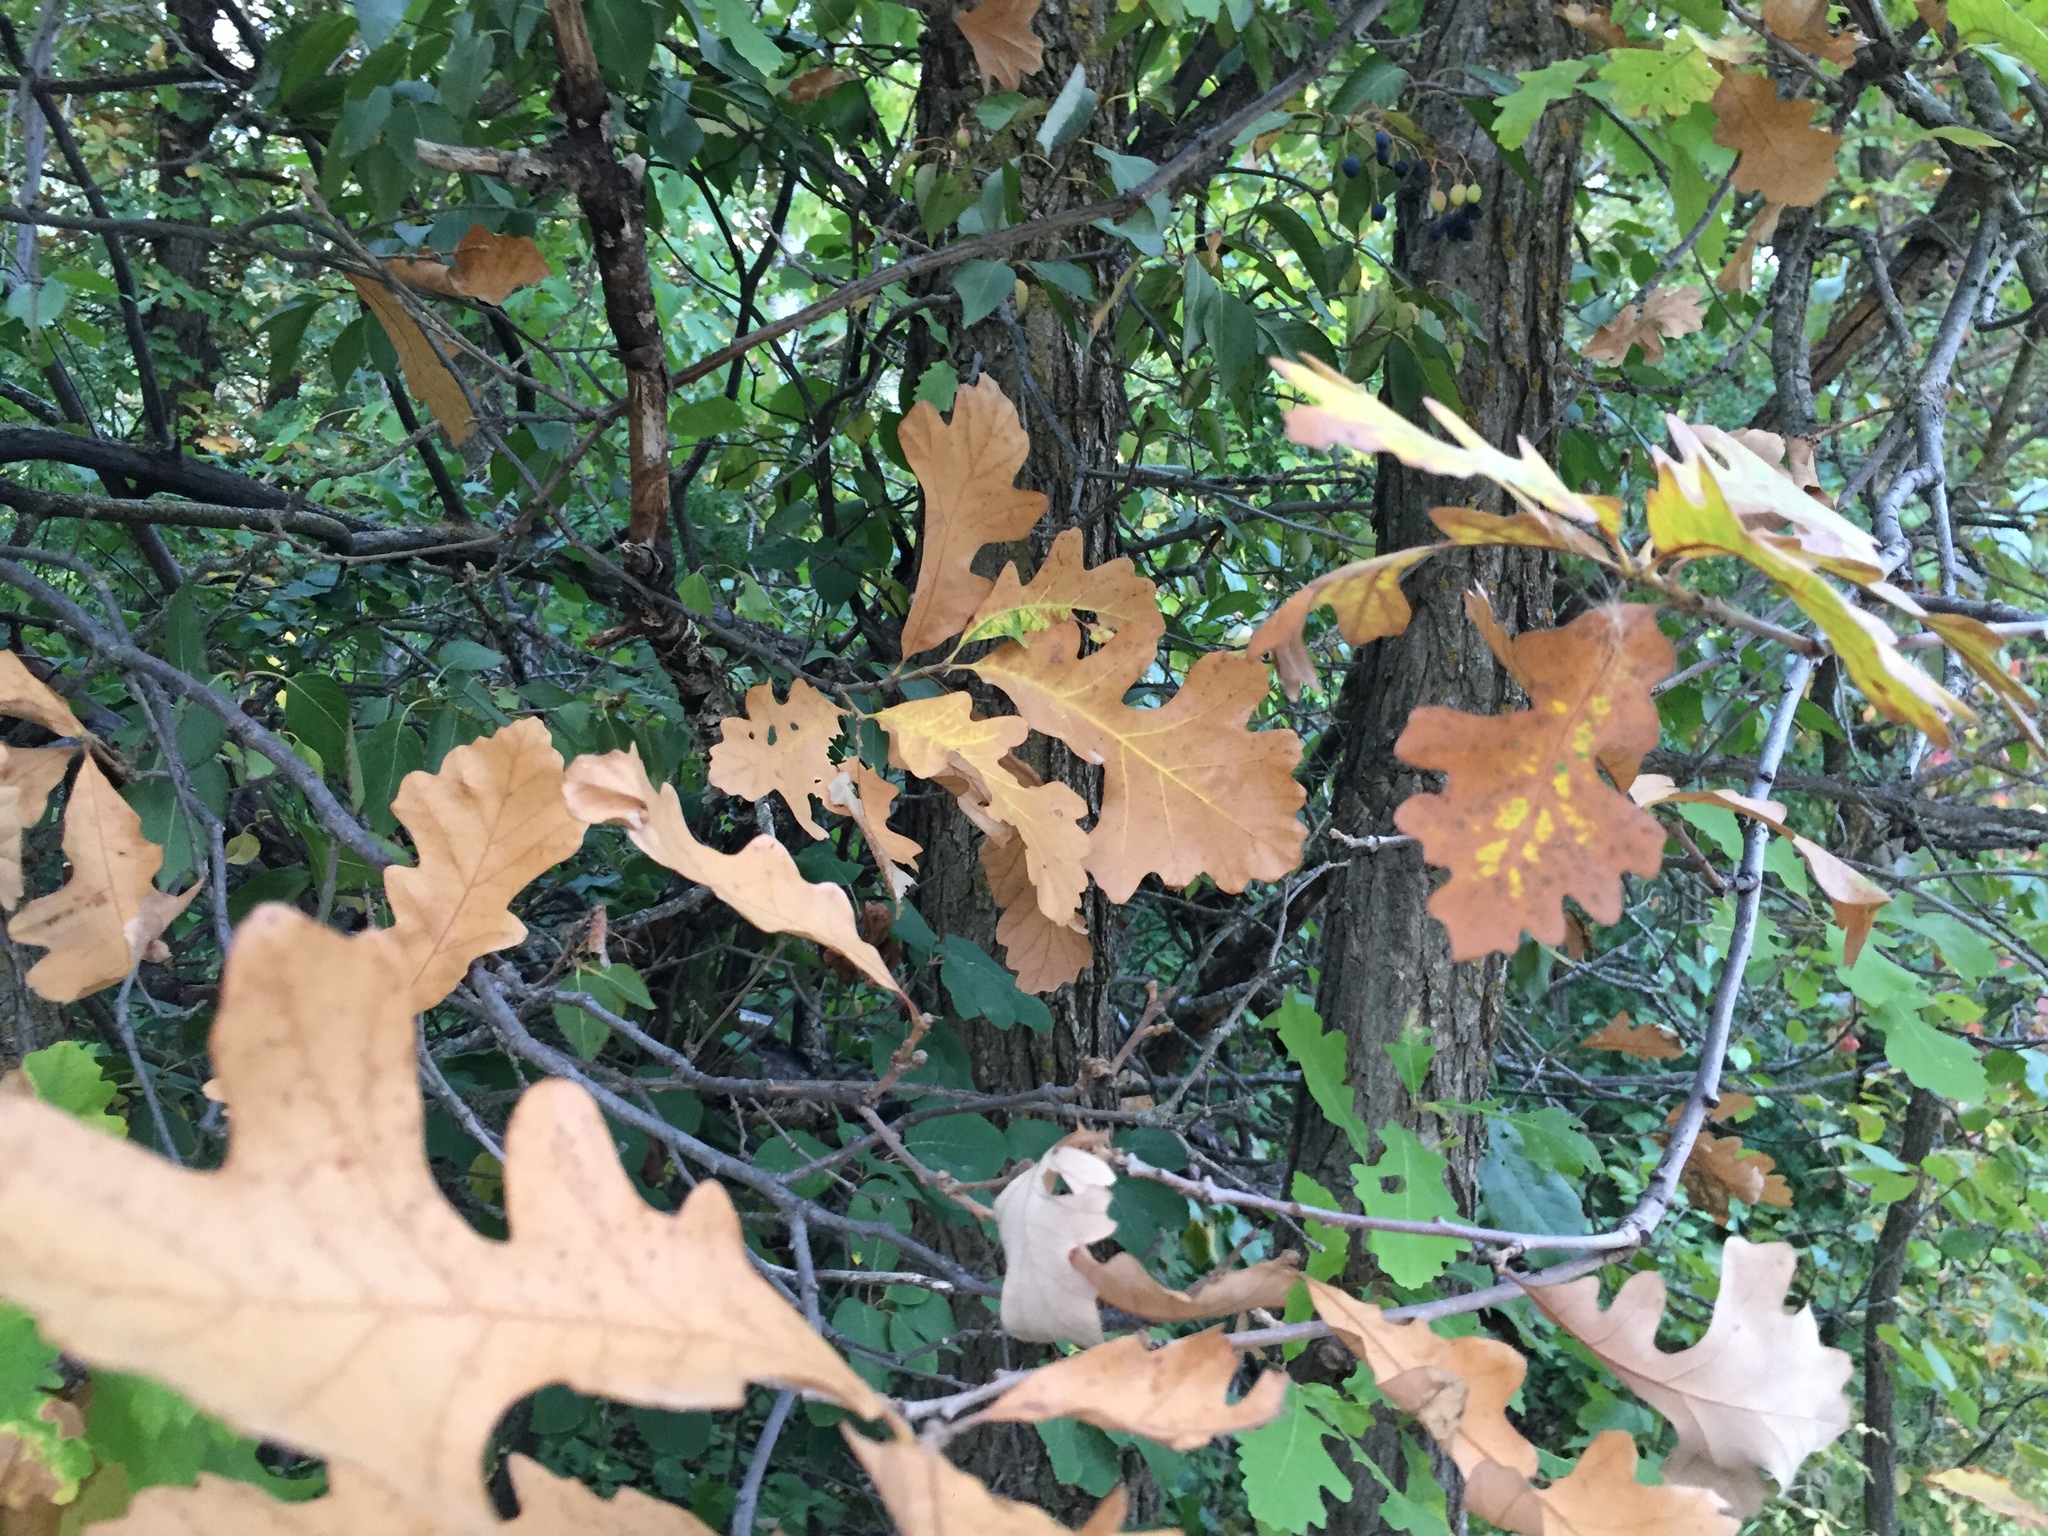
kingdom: Plantae
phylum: Tracheophyta
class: Magnoliopsida
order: Fagales
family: Fagaceae
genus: Quercus
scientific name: Quercus macrocarpa
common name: Bur oak
